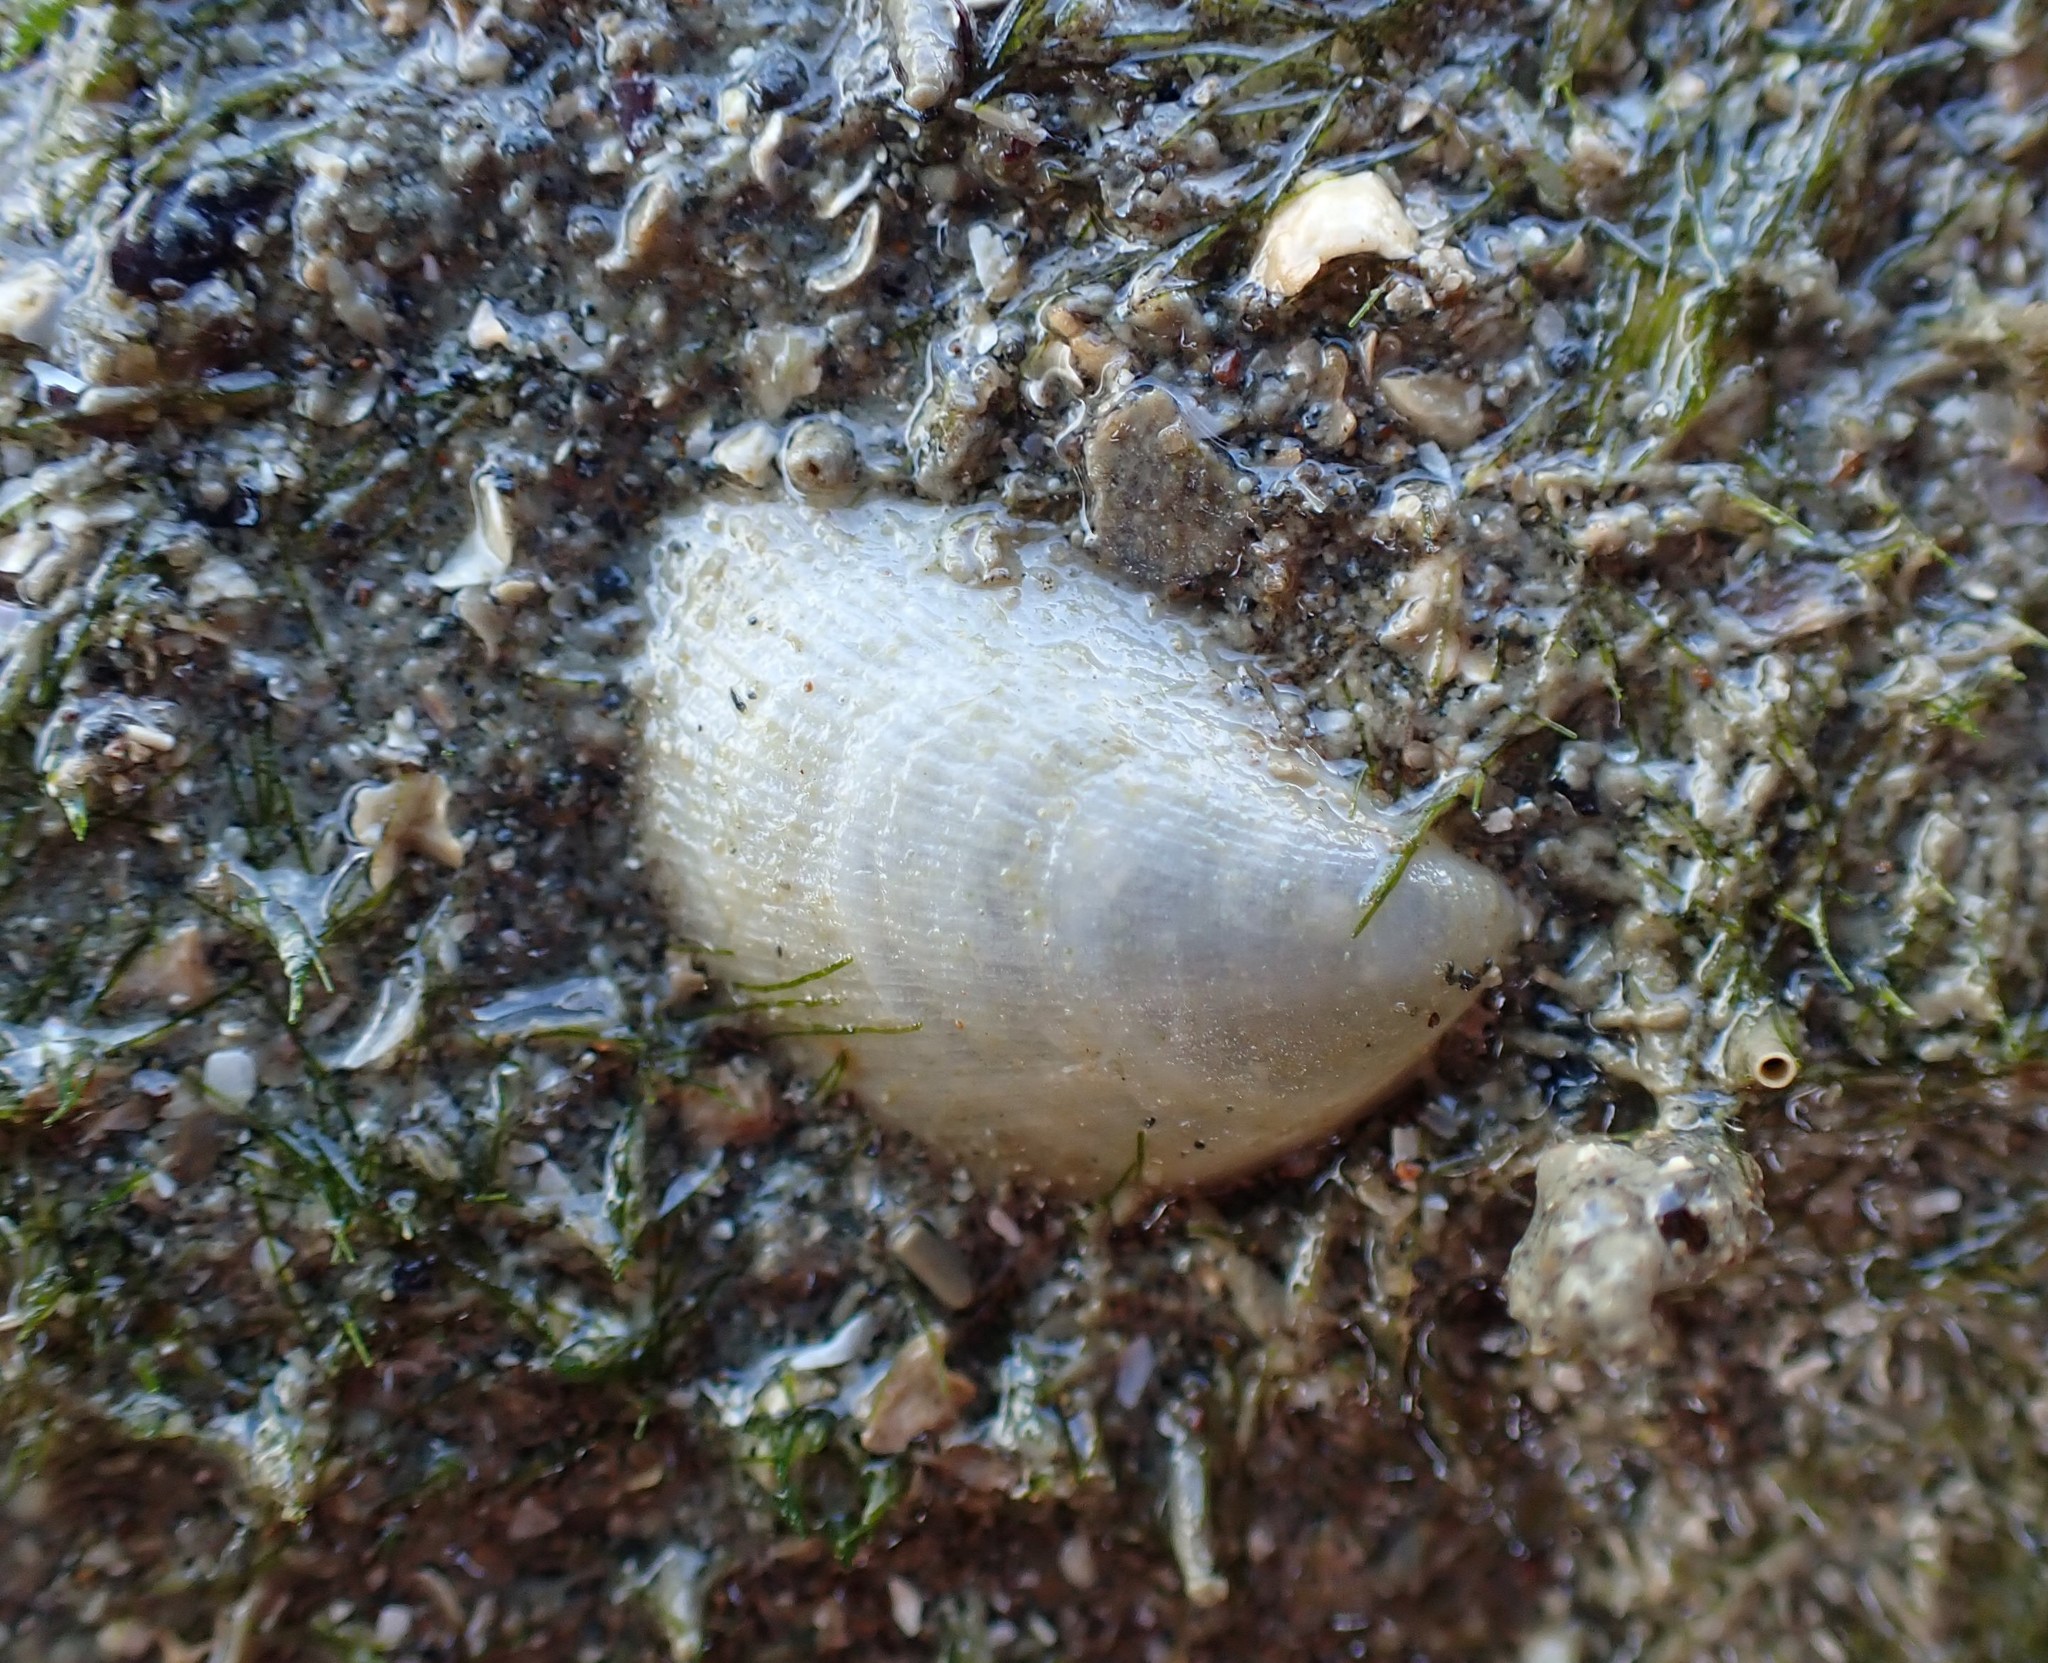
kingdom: Animalia
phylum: Mollusca
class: Bivalvia
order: Limida
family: Limidae
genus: Limaria
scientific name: Limaria orientalis
